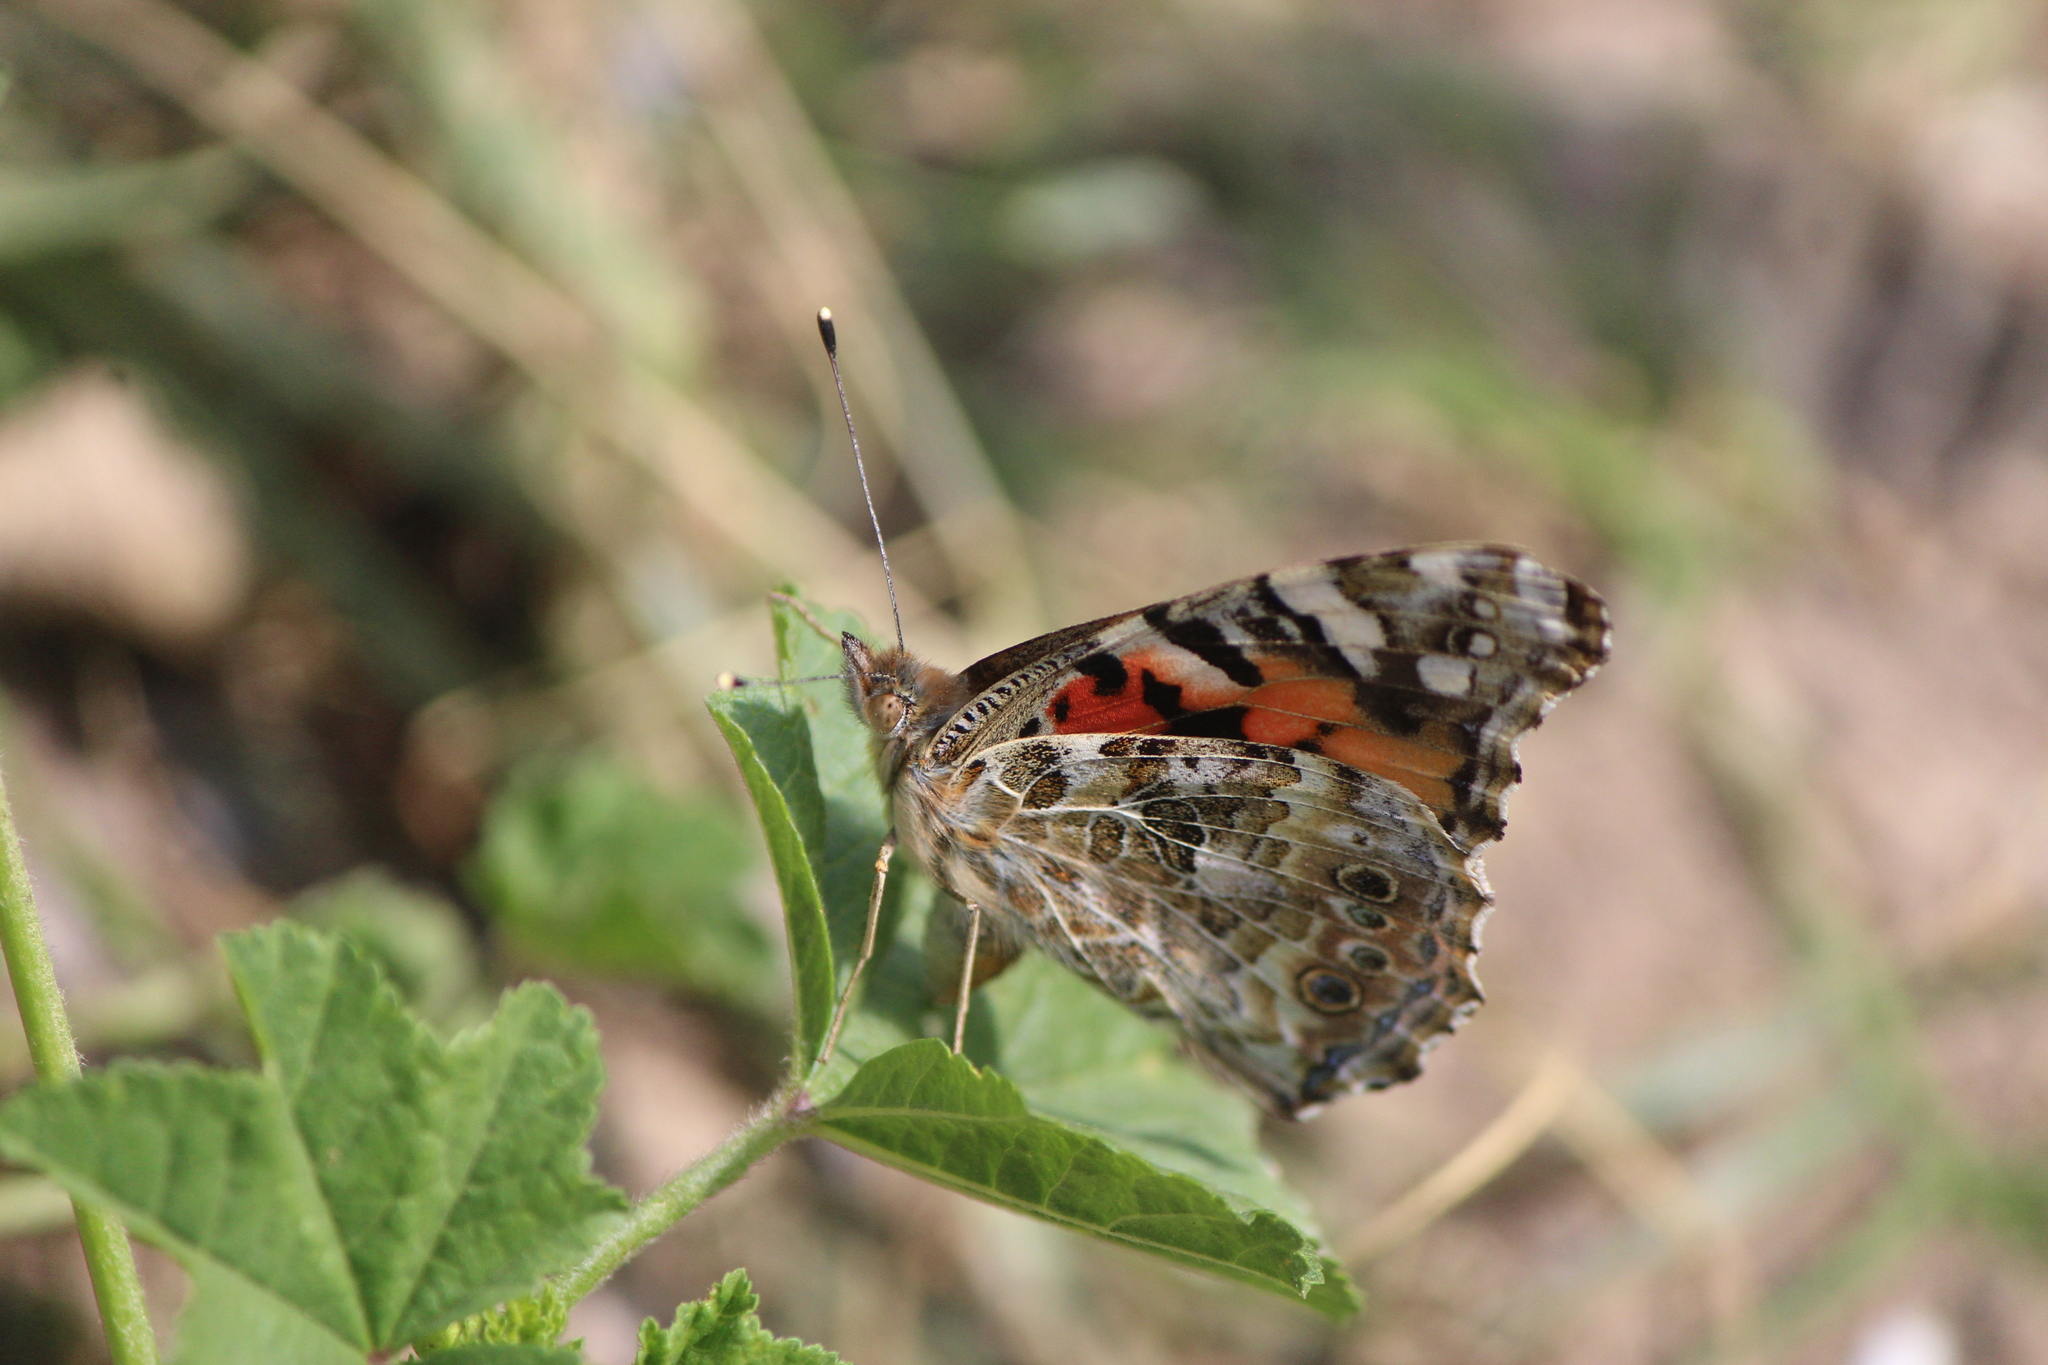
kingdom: Animalia
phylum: Arthropoda
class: Insecta
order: Lepidoptera
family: Nymphalidae
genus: Vanessa
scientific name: Vanessa cardui
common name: Painted lady
